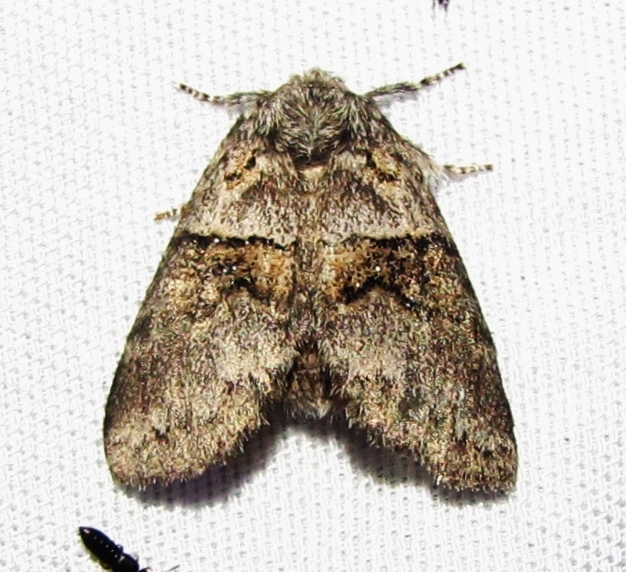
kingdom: Animalia
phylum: Arthropoda
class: Insecta
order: Lepidoptera
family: Notodontidae
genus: Gluphisia
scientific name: Gluphisia septentrionis
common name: Common gluphisia
